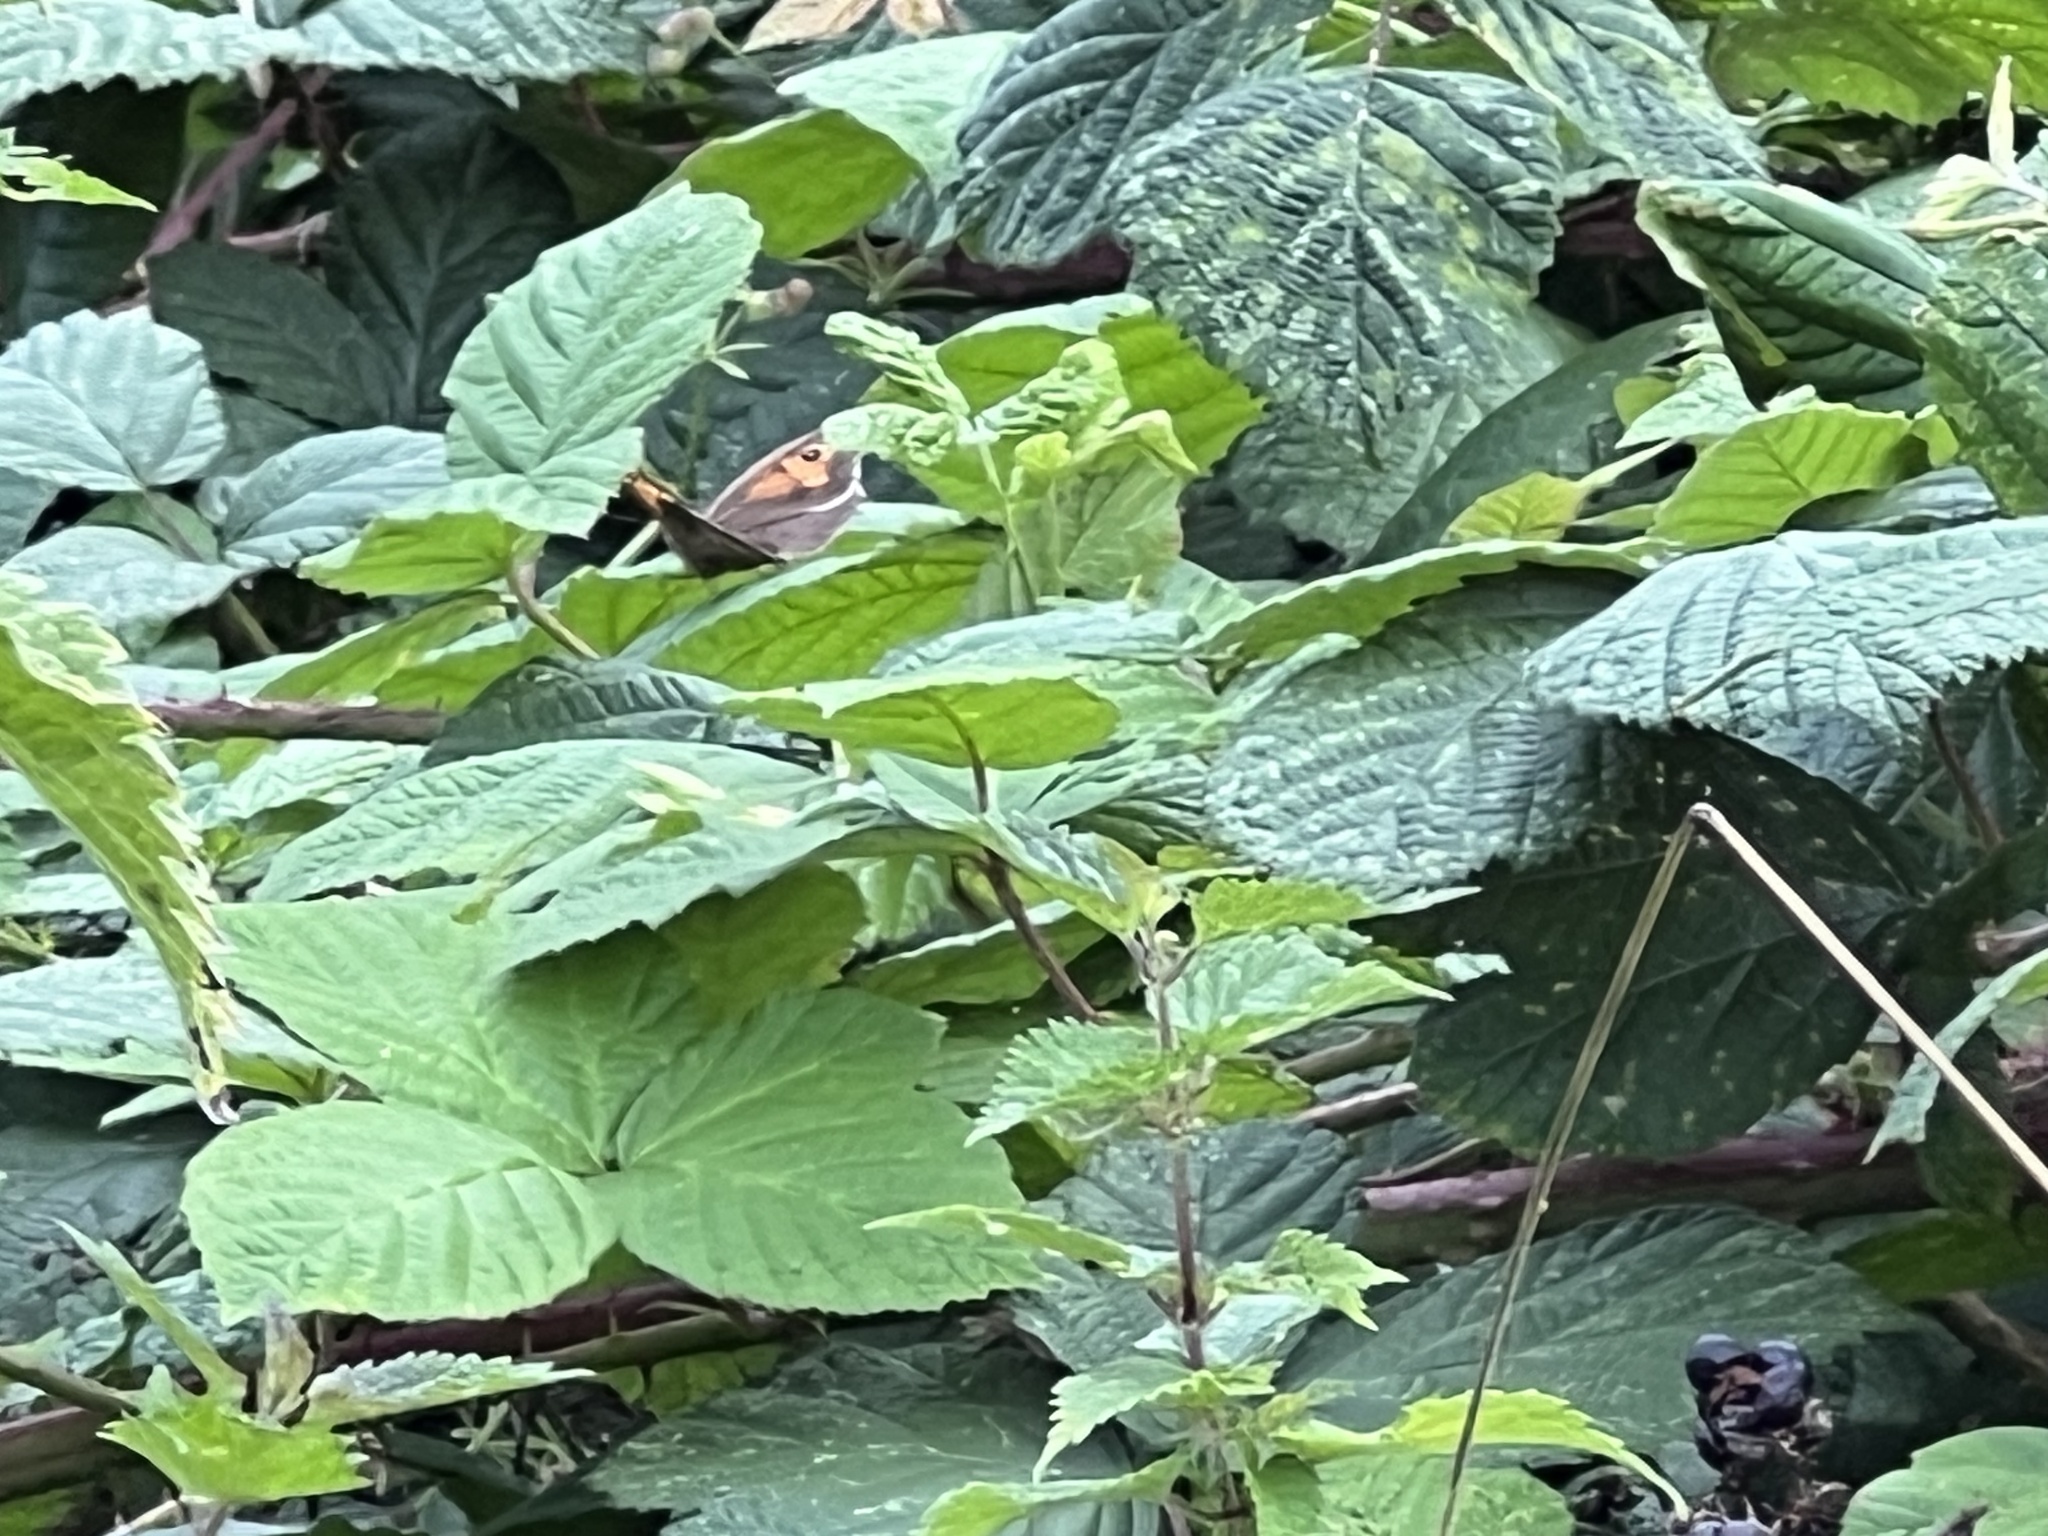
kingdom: Animalia
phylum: Arthropoda
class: Insecta
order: Lepidoptera
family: Nymphalidae
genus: Maniola
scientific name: Maniola jurtina
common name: Meadow brown
